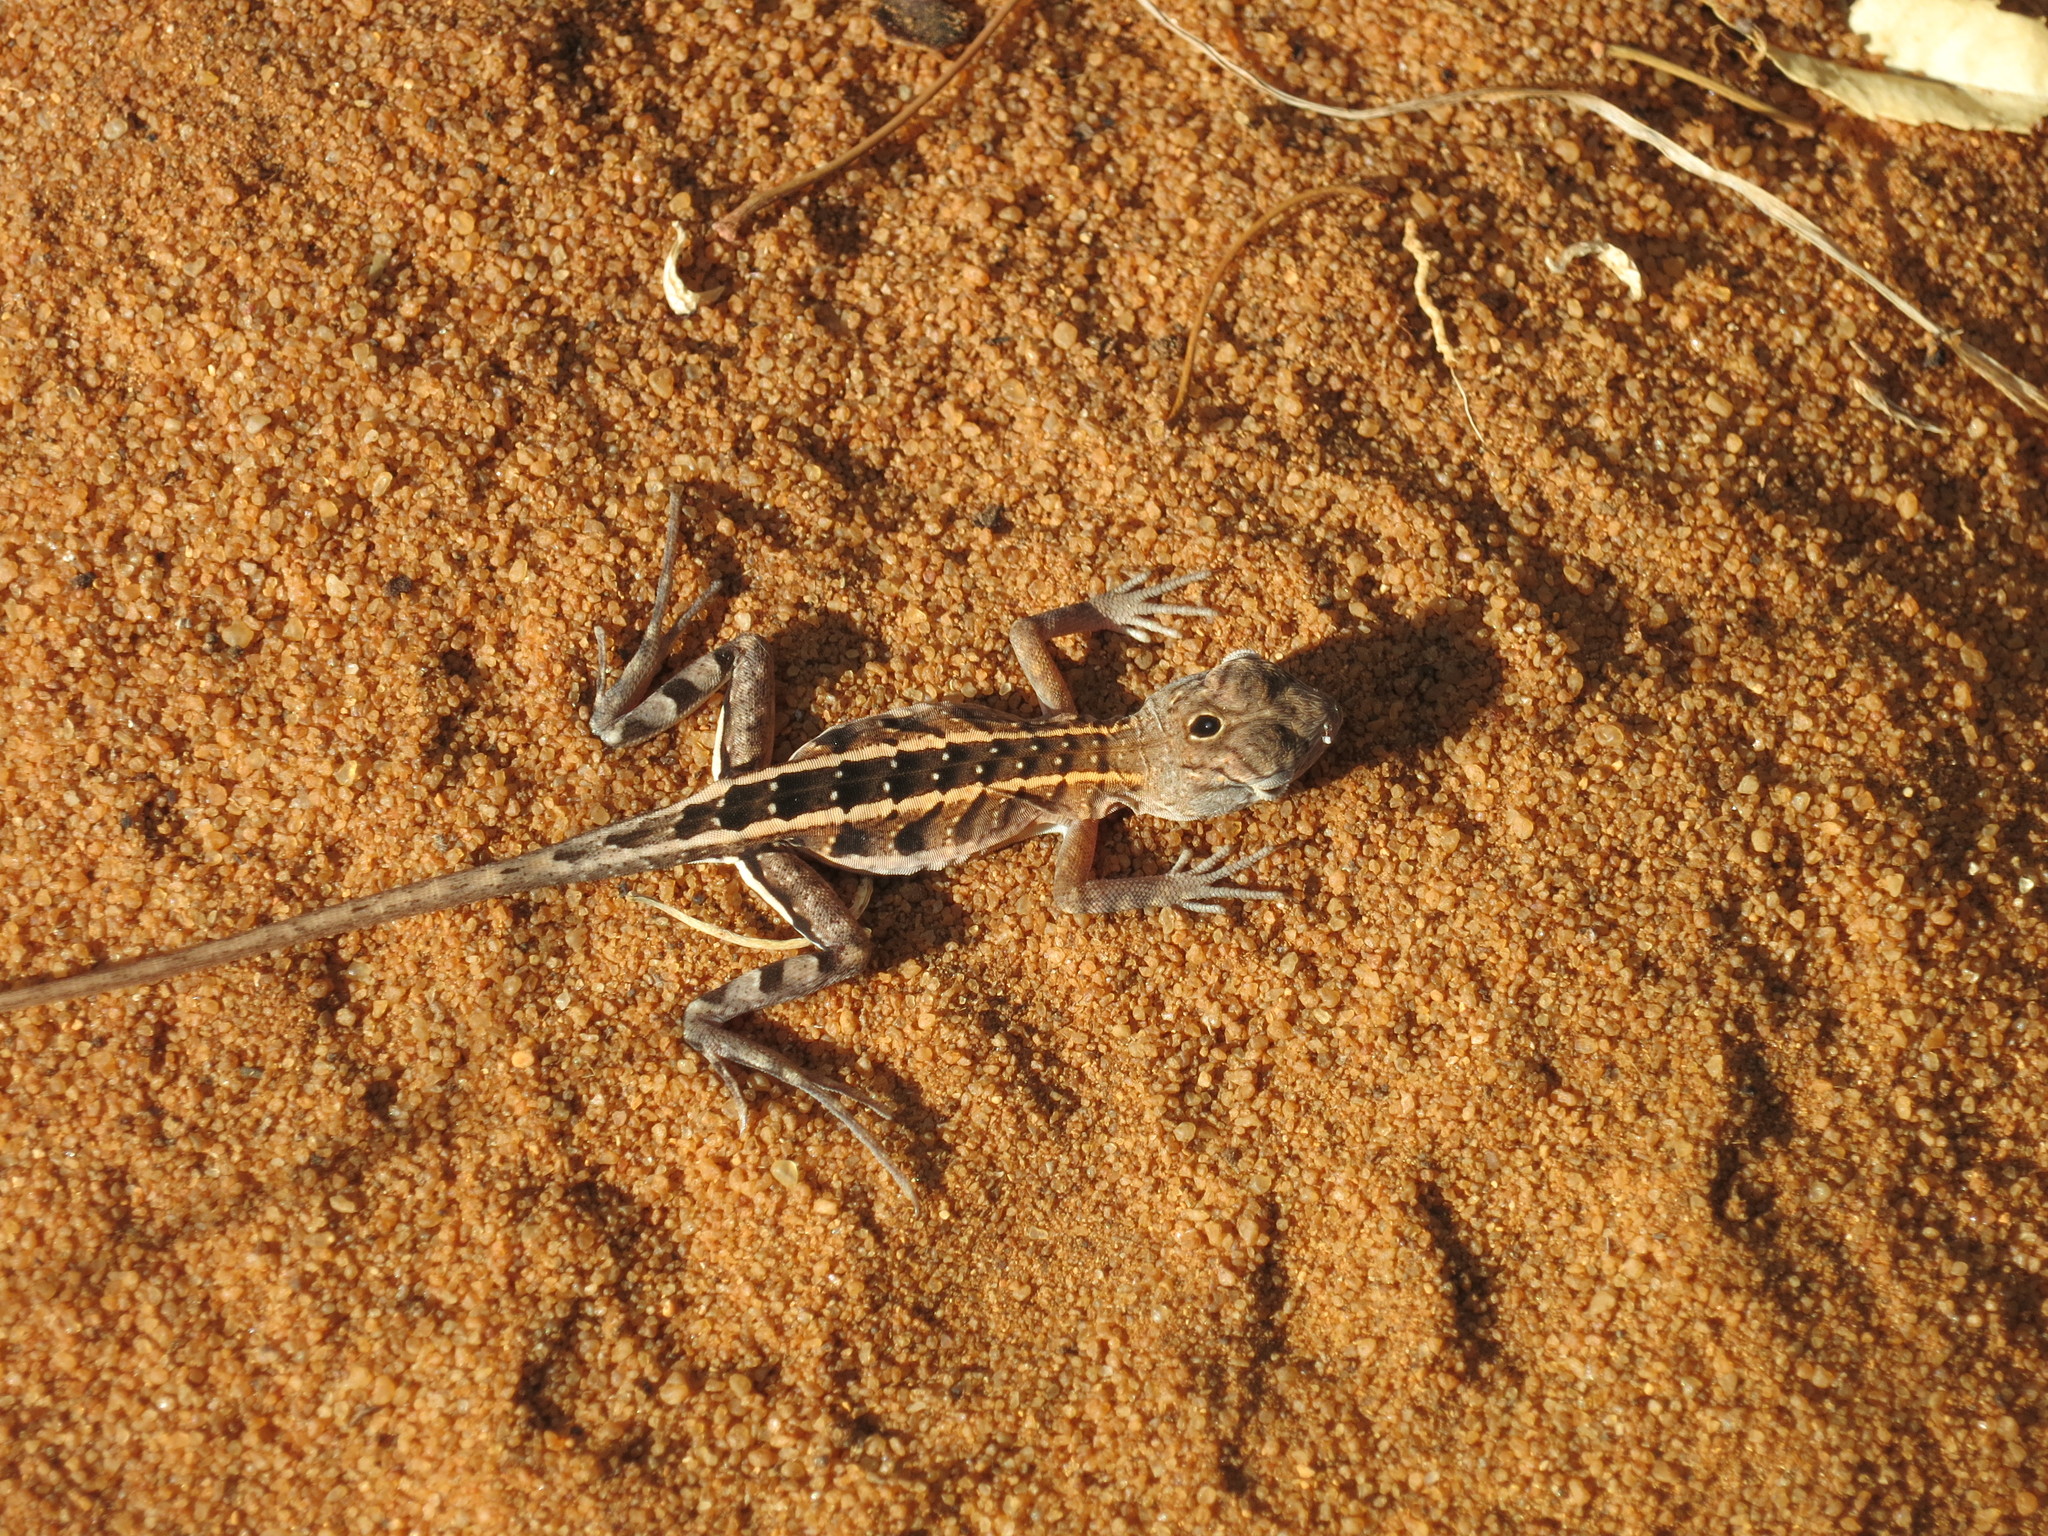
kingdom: Animalia
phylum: Chordata
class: Squamata
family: Opluridae
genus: Chalarodon
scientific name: Chalarodon madagascariensis
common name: Madagascar iguana
